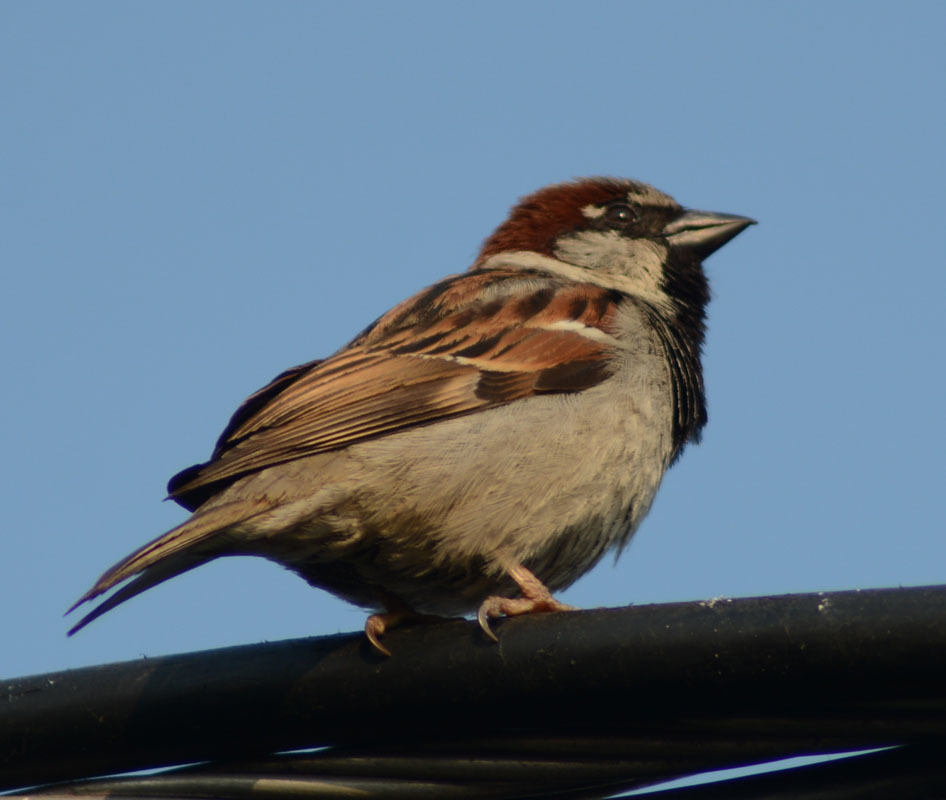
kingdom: Animalia
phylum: Chordata
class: Aves
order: Passeriformes
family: Passeridae
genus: Passer
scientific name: Passer domesticus
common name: House sparrow
